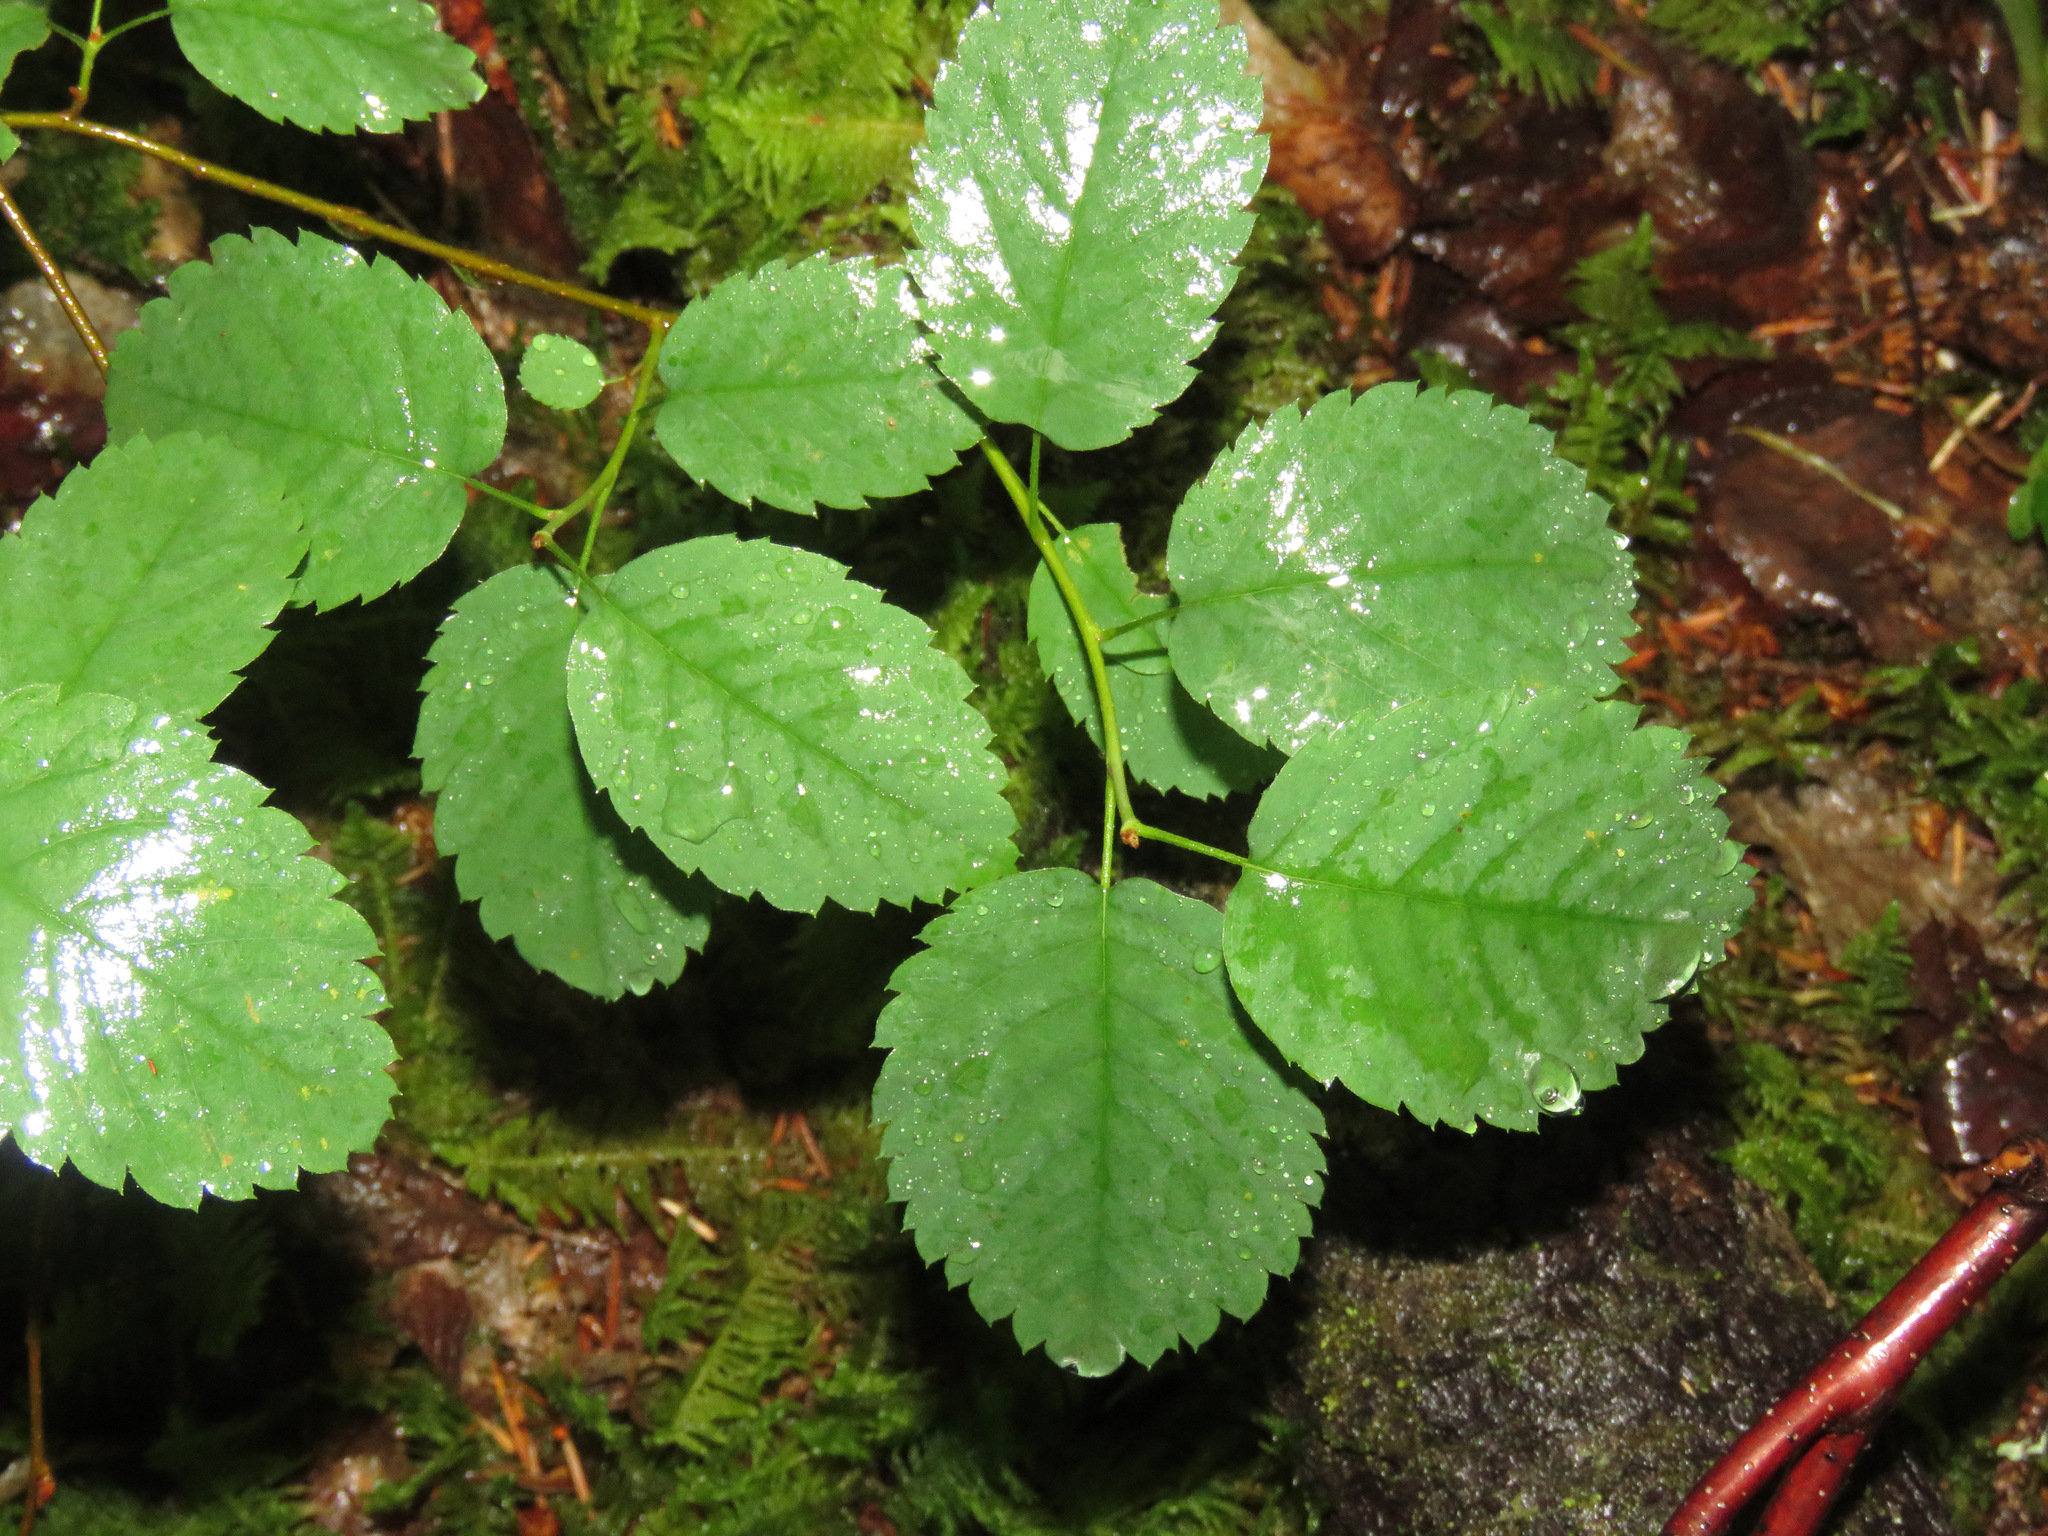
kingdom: Plantae
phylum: Tracheophyta
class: Magnoliopsida
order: Rosales
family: Rosaceae
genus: Amelanchier
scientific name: Amelanchier alnifolia
